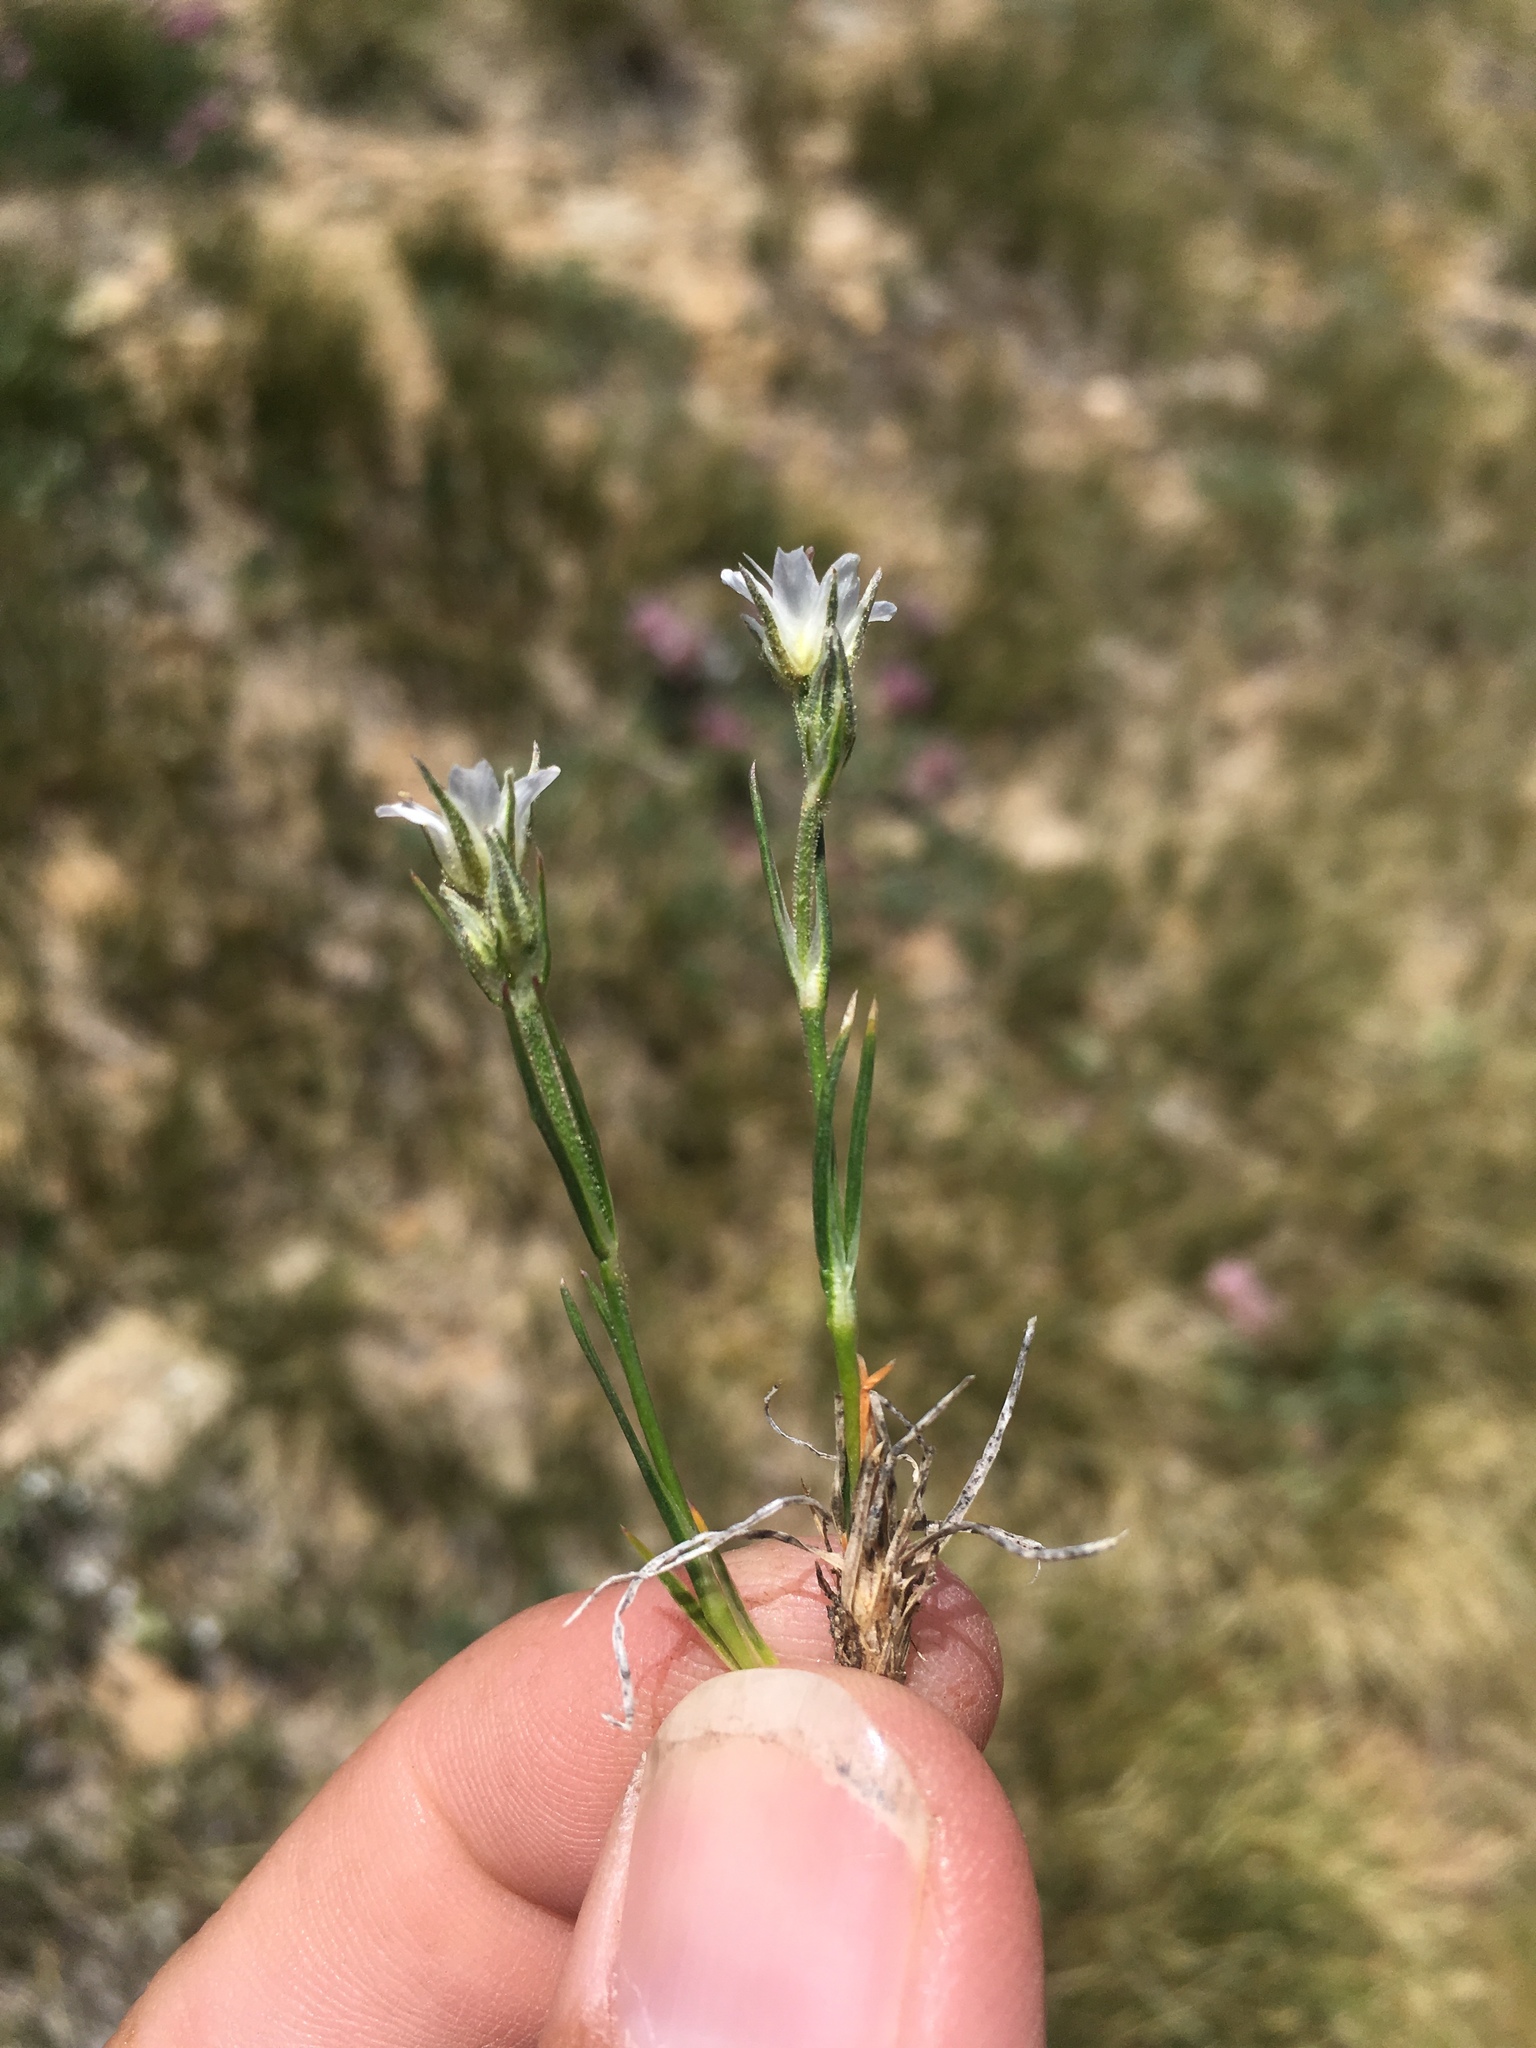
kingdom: Plantae
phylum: Tracheophyta
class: Magnoliopsida
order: Caryophyllales
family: Caryophyllaceae
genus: Eremogone
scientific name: Eremogone fendleri
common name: Fendler's sandwort
